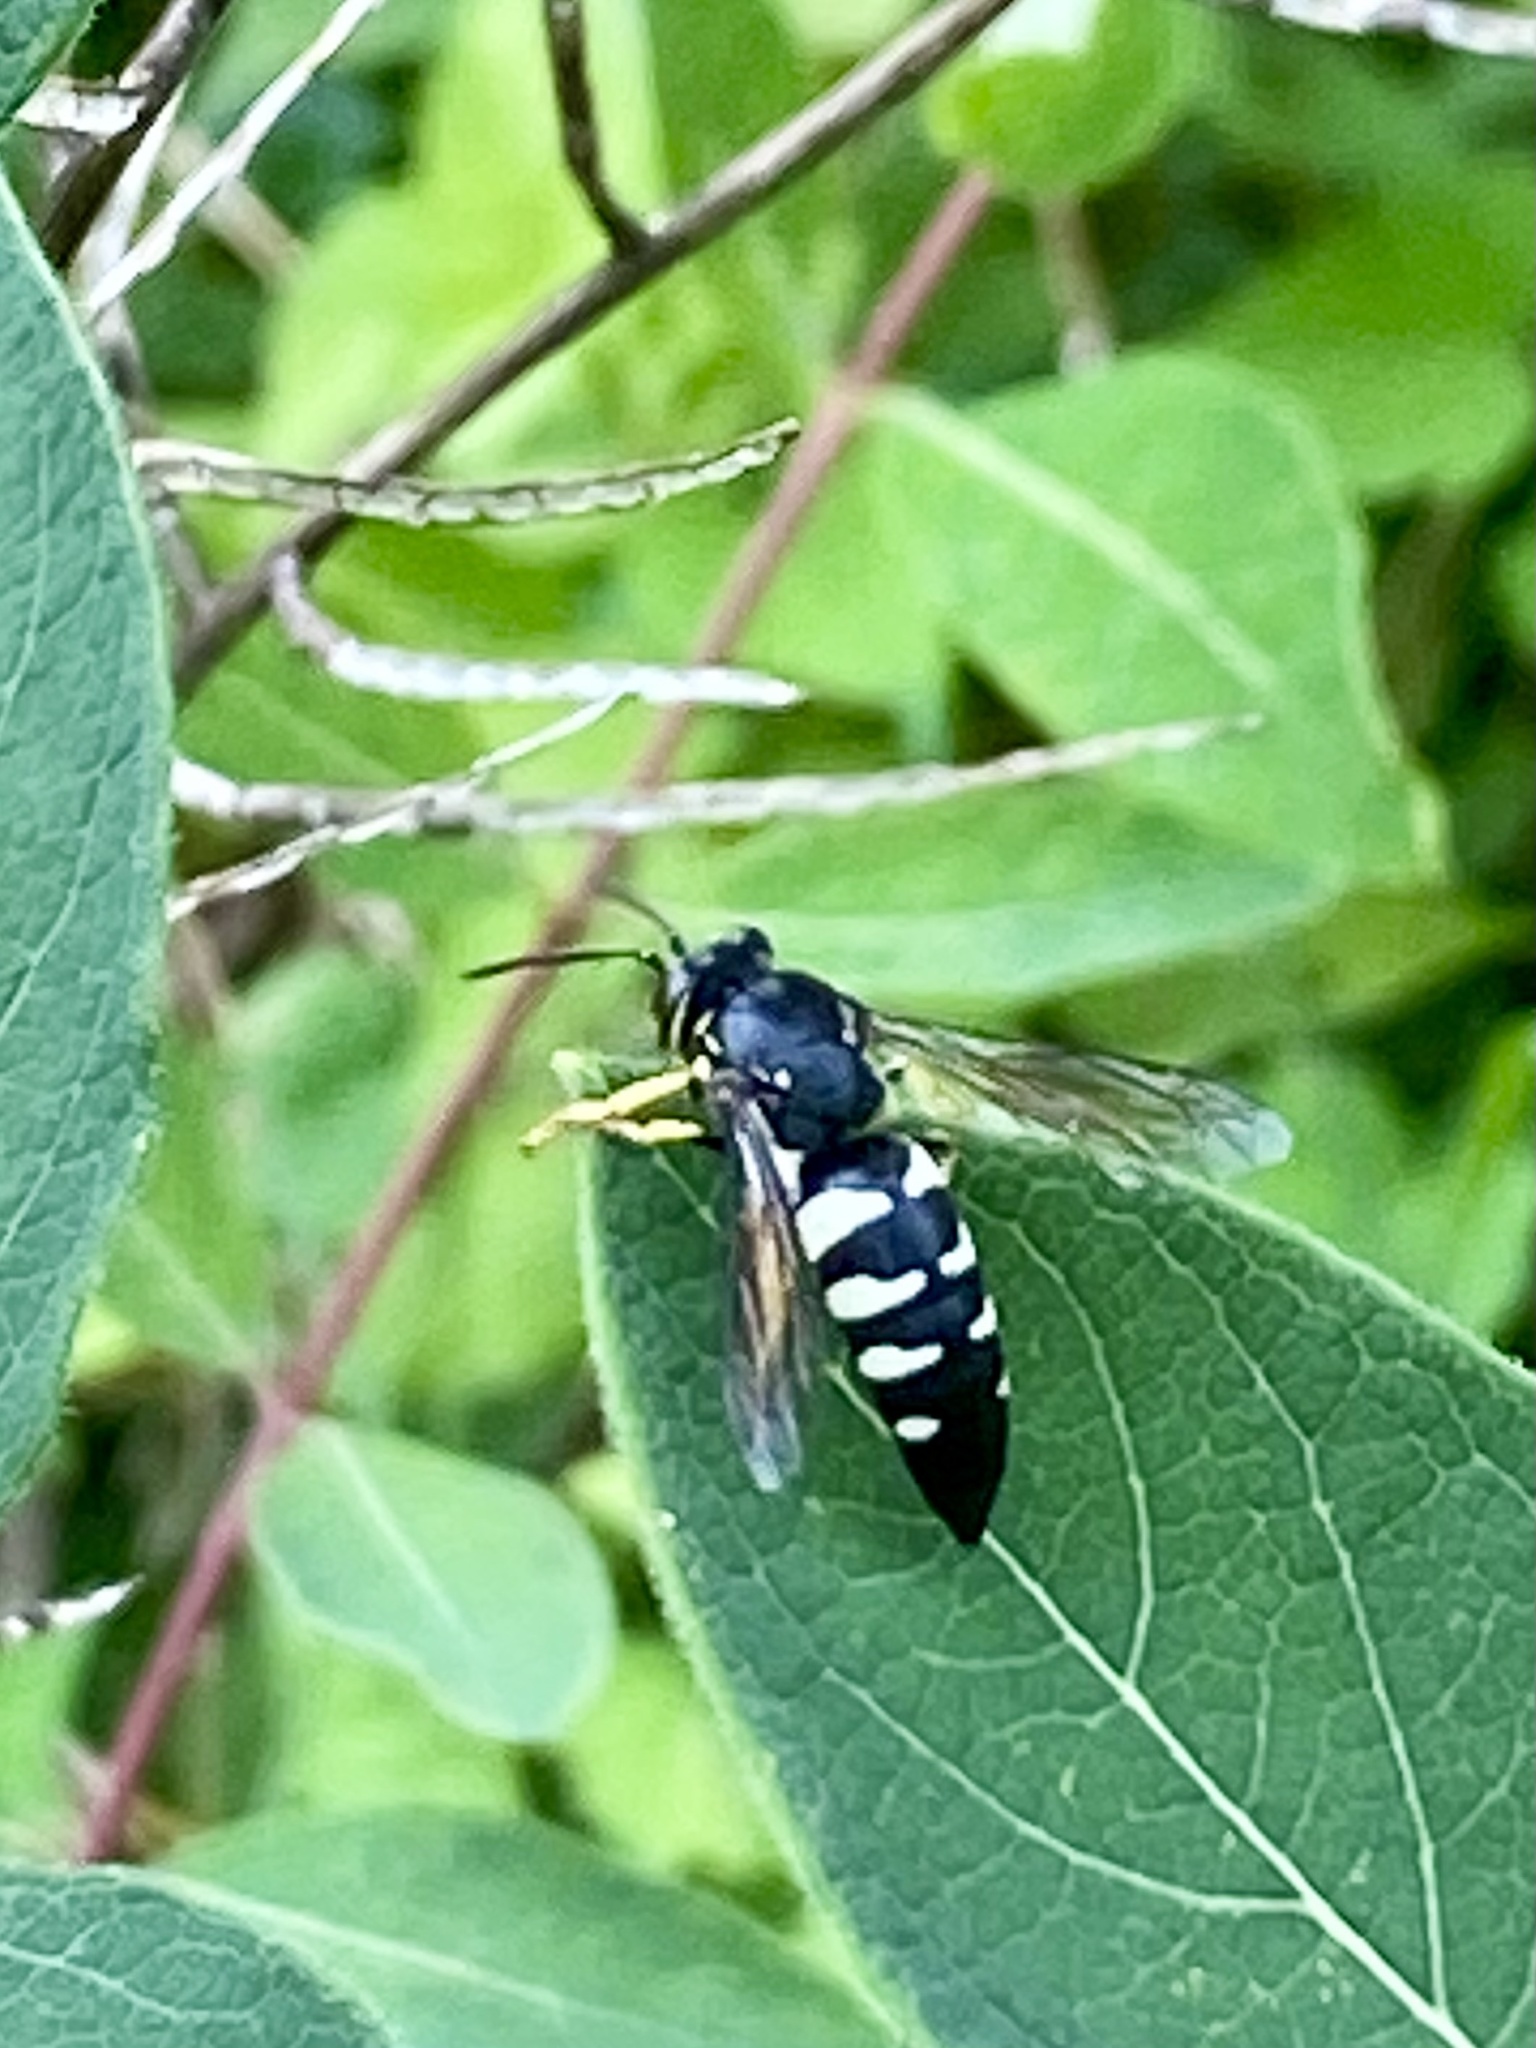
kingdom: Animalia
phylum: Arthropoda
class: Insecta
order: Hymenoptera
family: Crabronidae
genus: Bicyrtes
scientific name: Bicyrtes quadrifasciatus
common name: Four-banded stink bug hunter wasp
